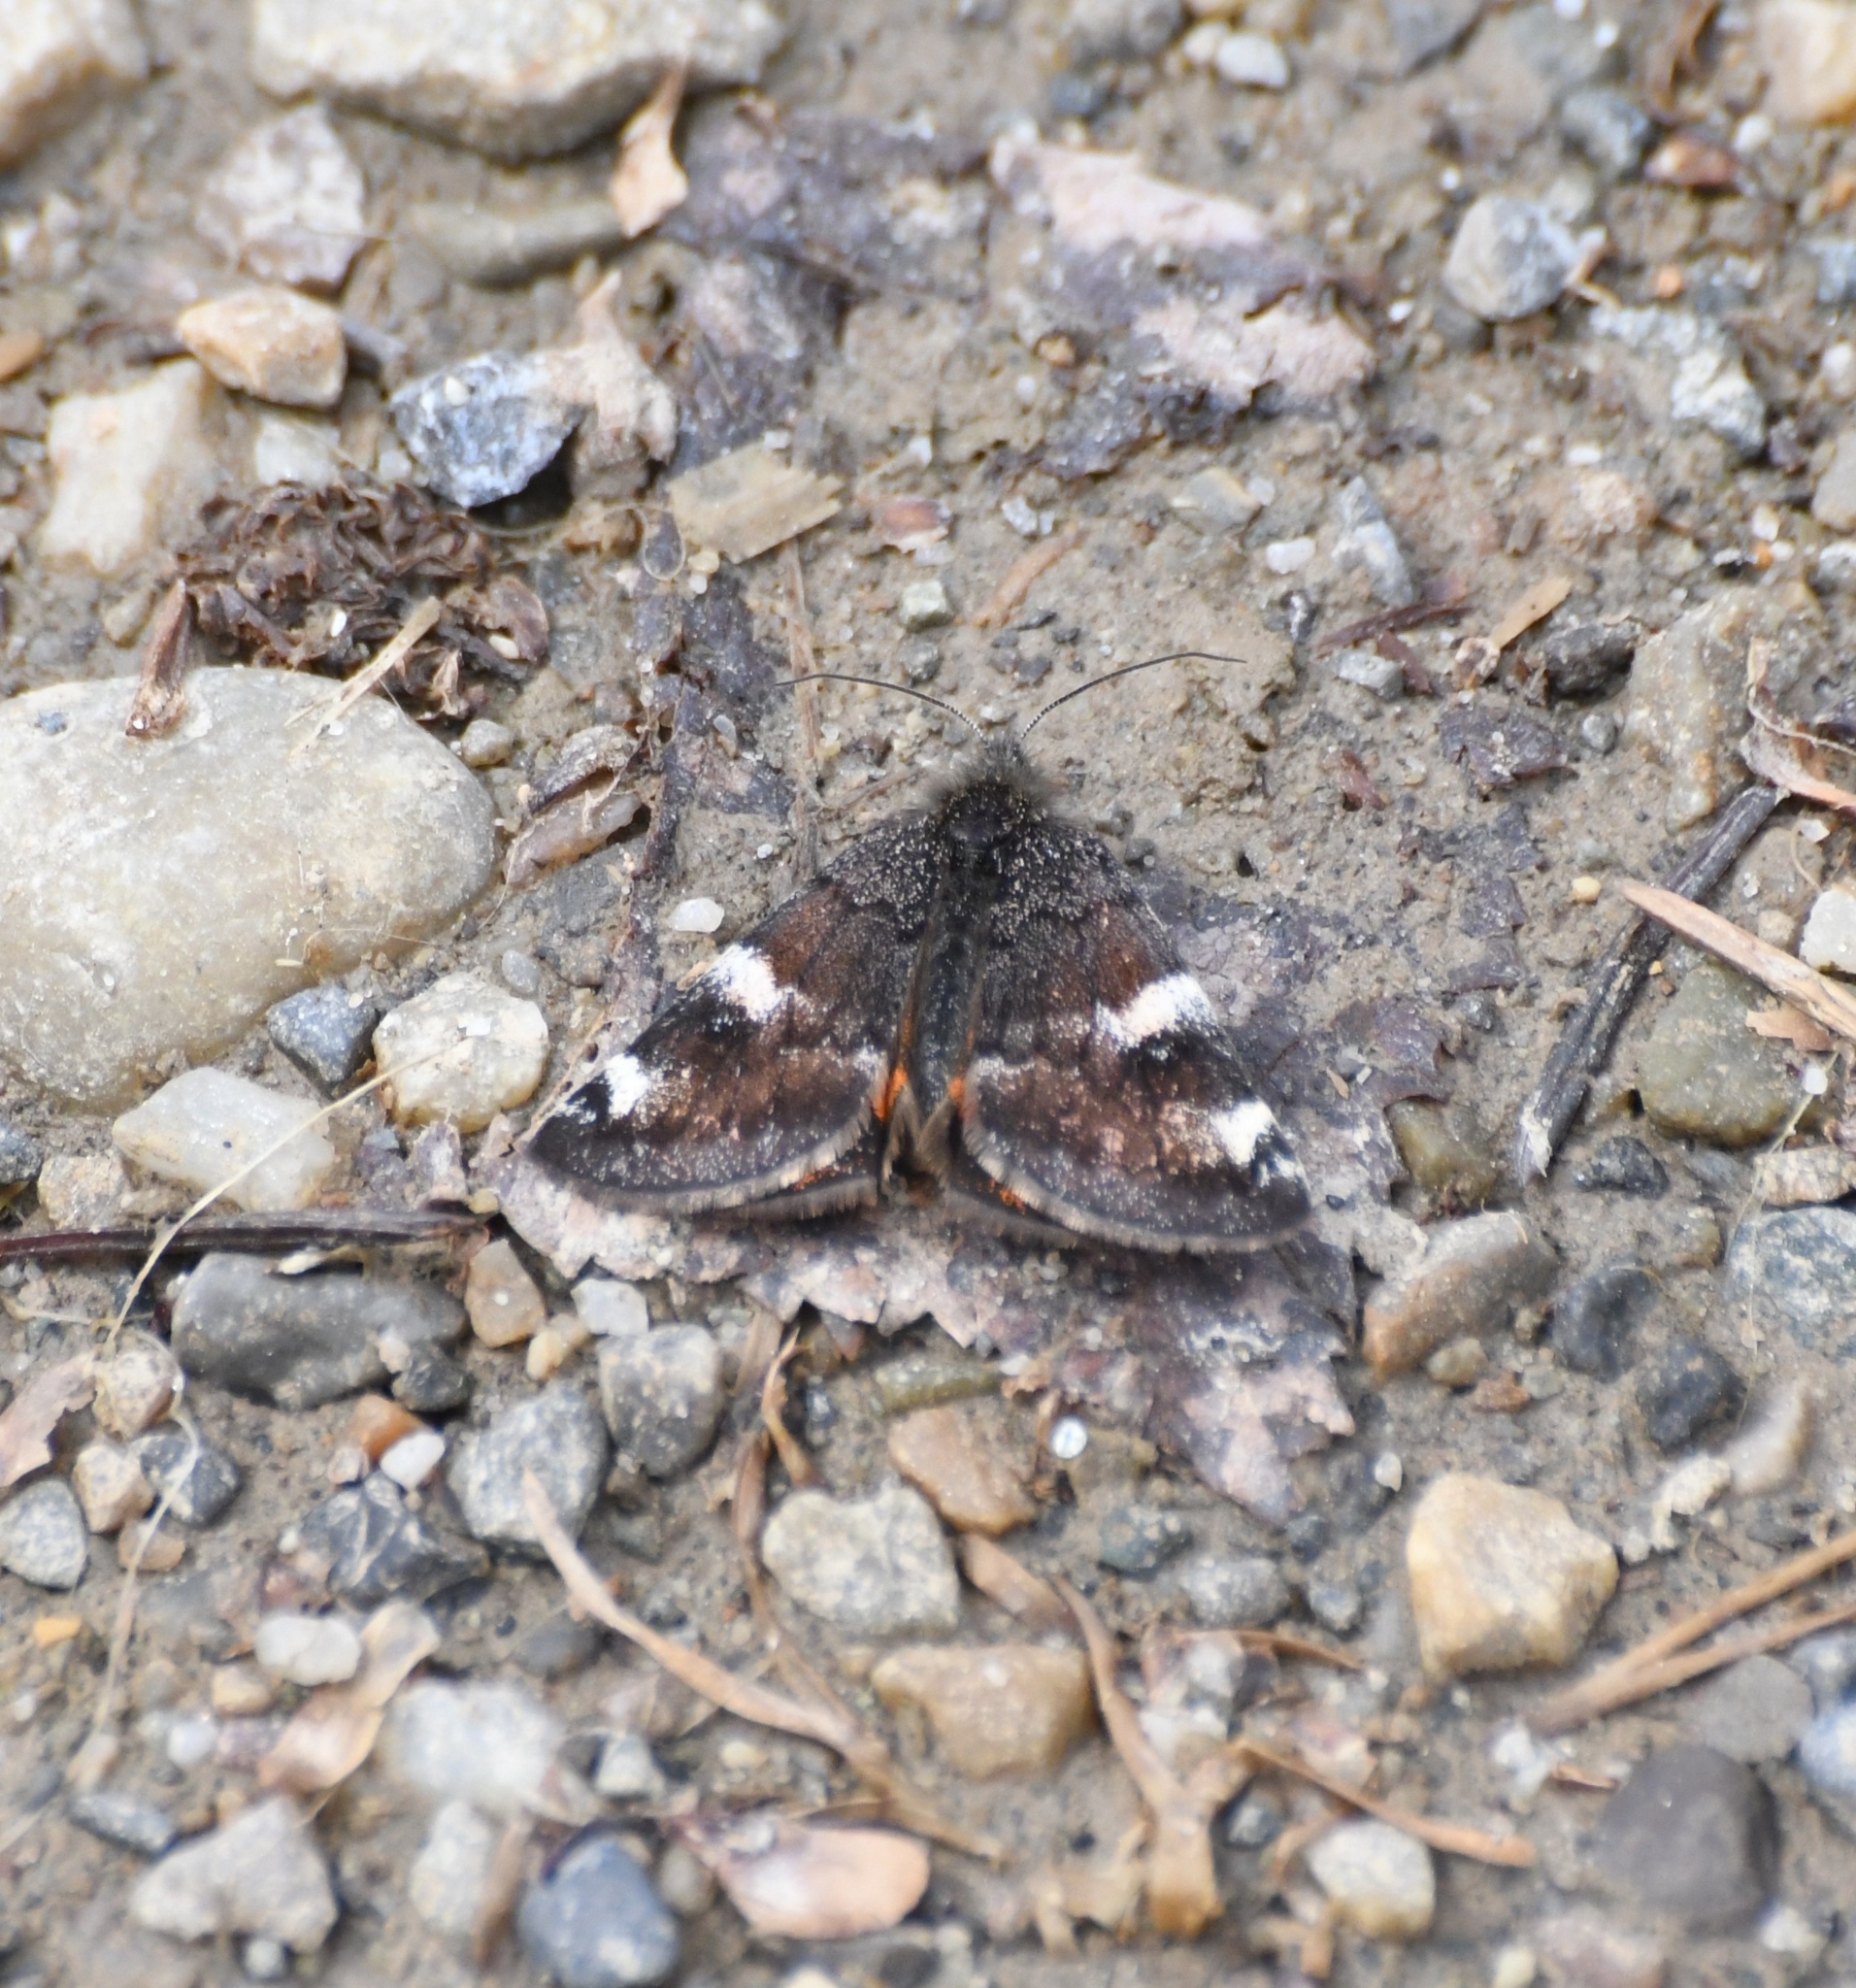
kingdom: Animalia
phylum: Arthropoda
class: Insecta
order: Lepidoptera
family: Geometridae
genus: Archiearis
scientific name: Archiearis infans
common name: First born geometer
